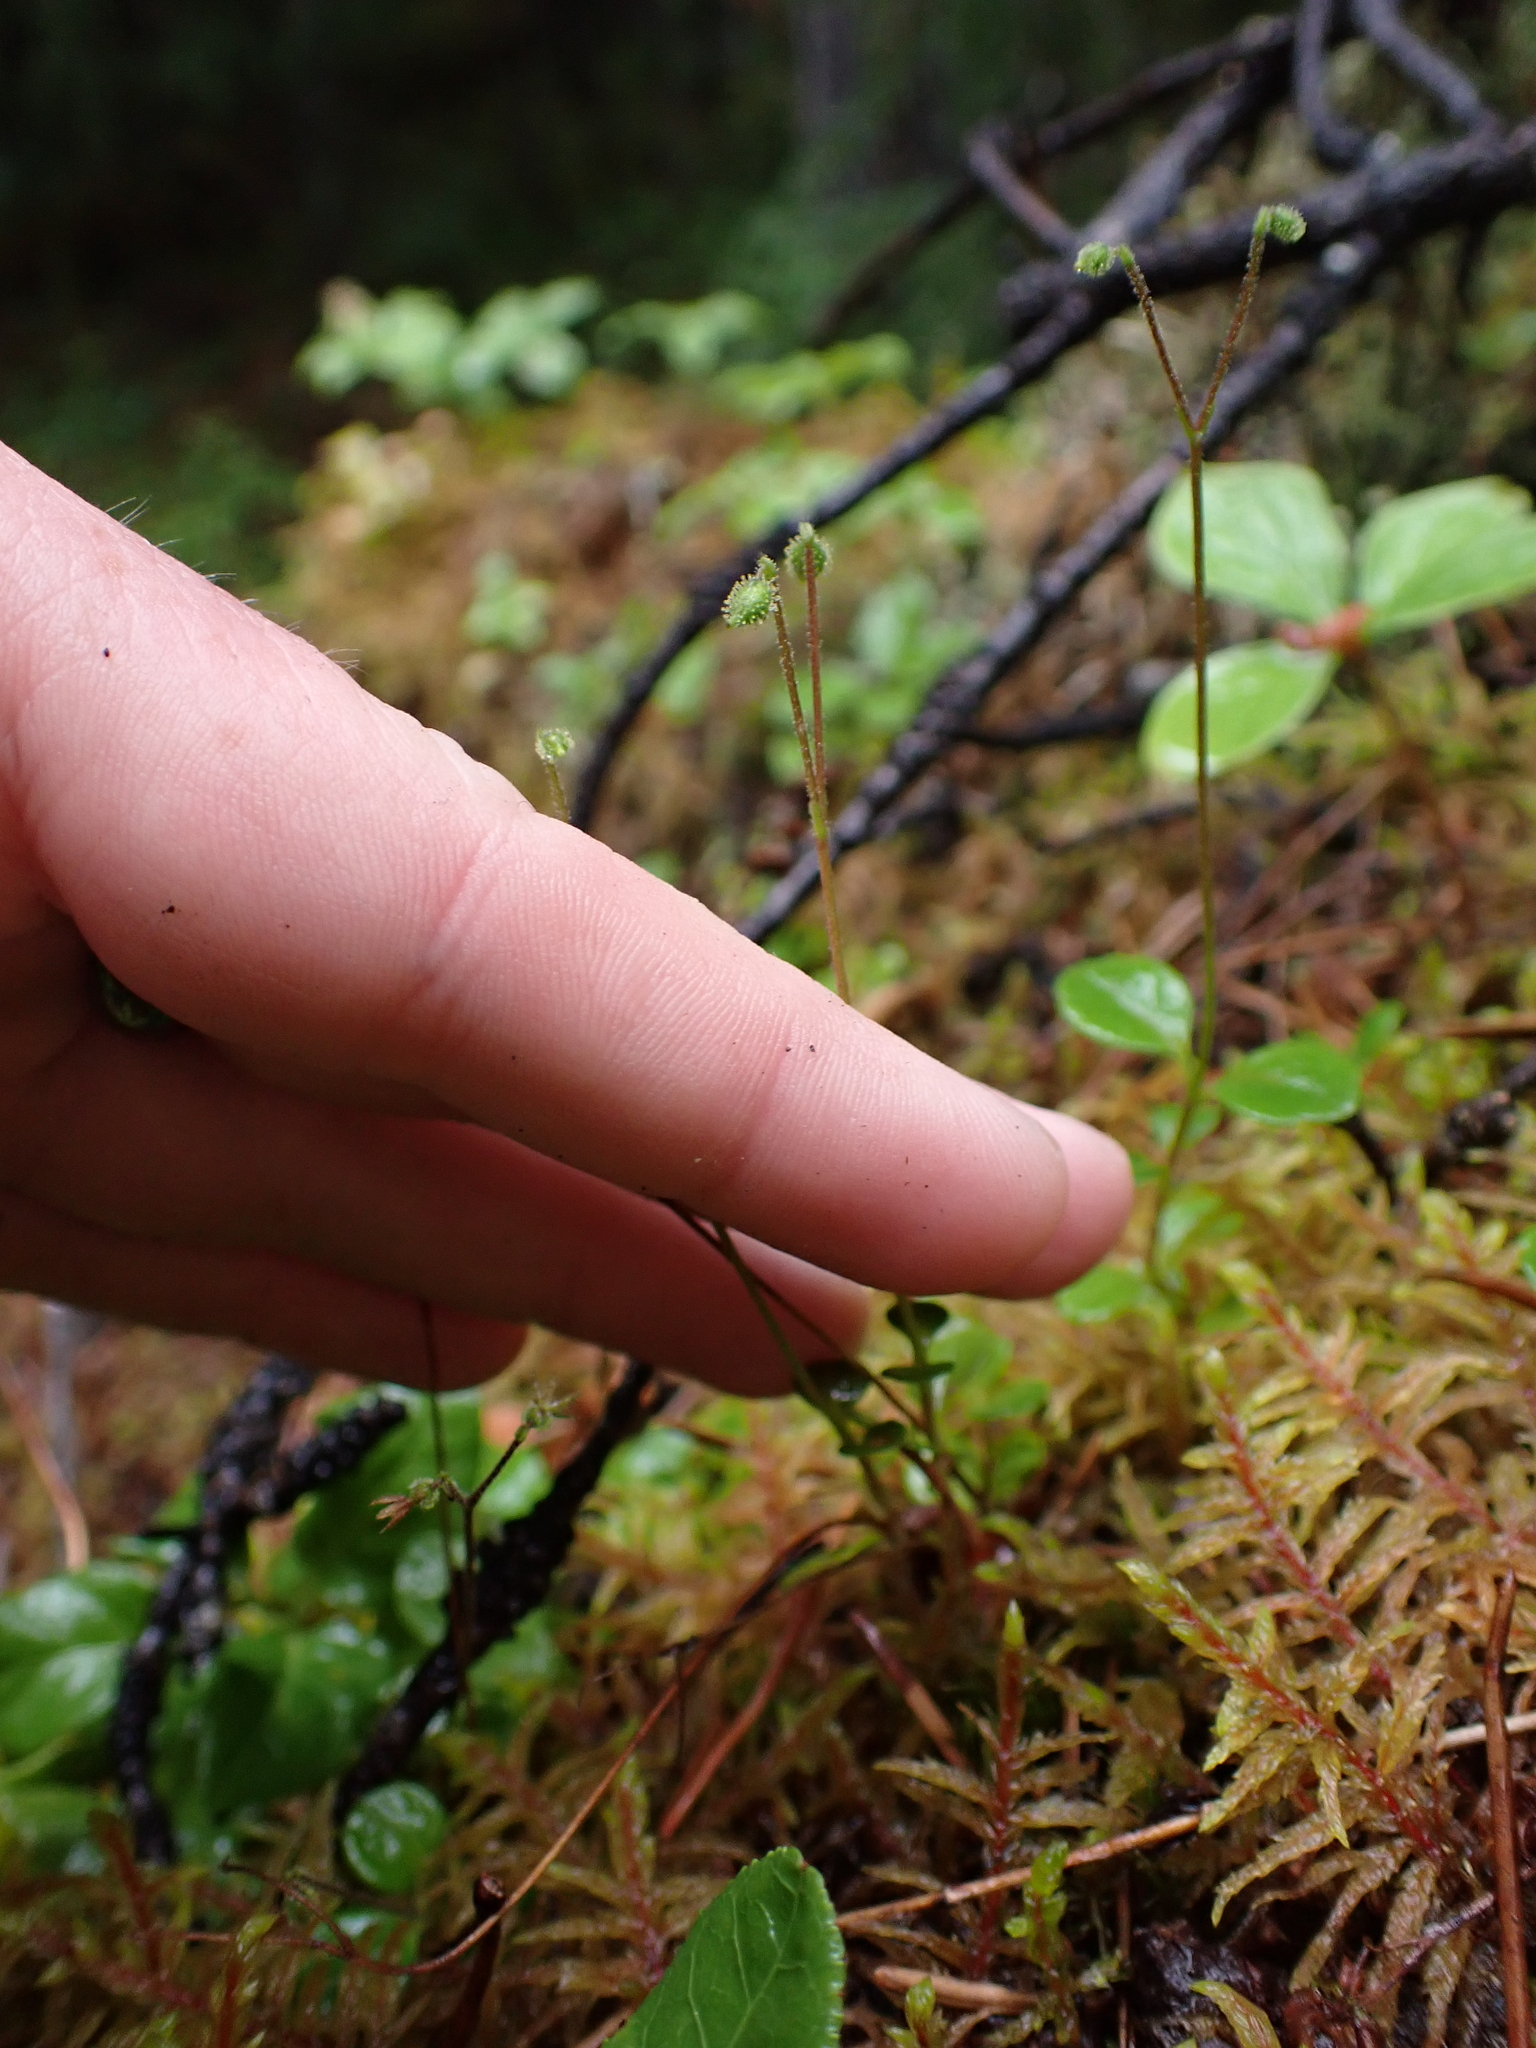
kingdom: Plantae
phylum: Tracheophyta
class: Magnoliopsida
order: Dipsacales
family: Caprifoliaceae
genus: Linnaea
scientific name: Linnaea borealis
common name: Twinflower
